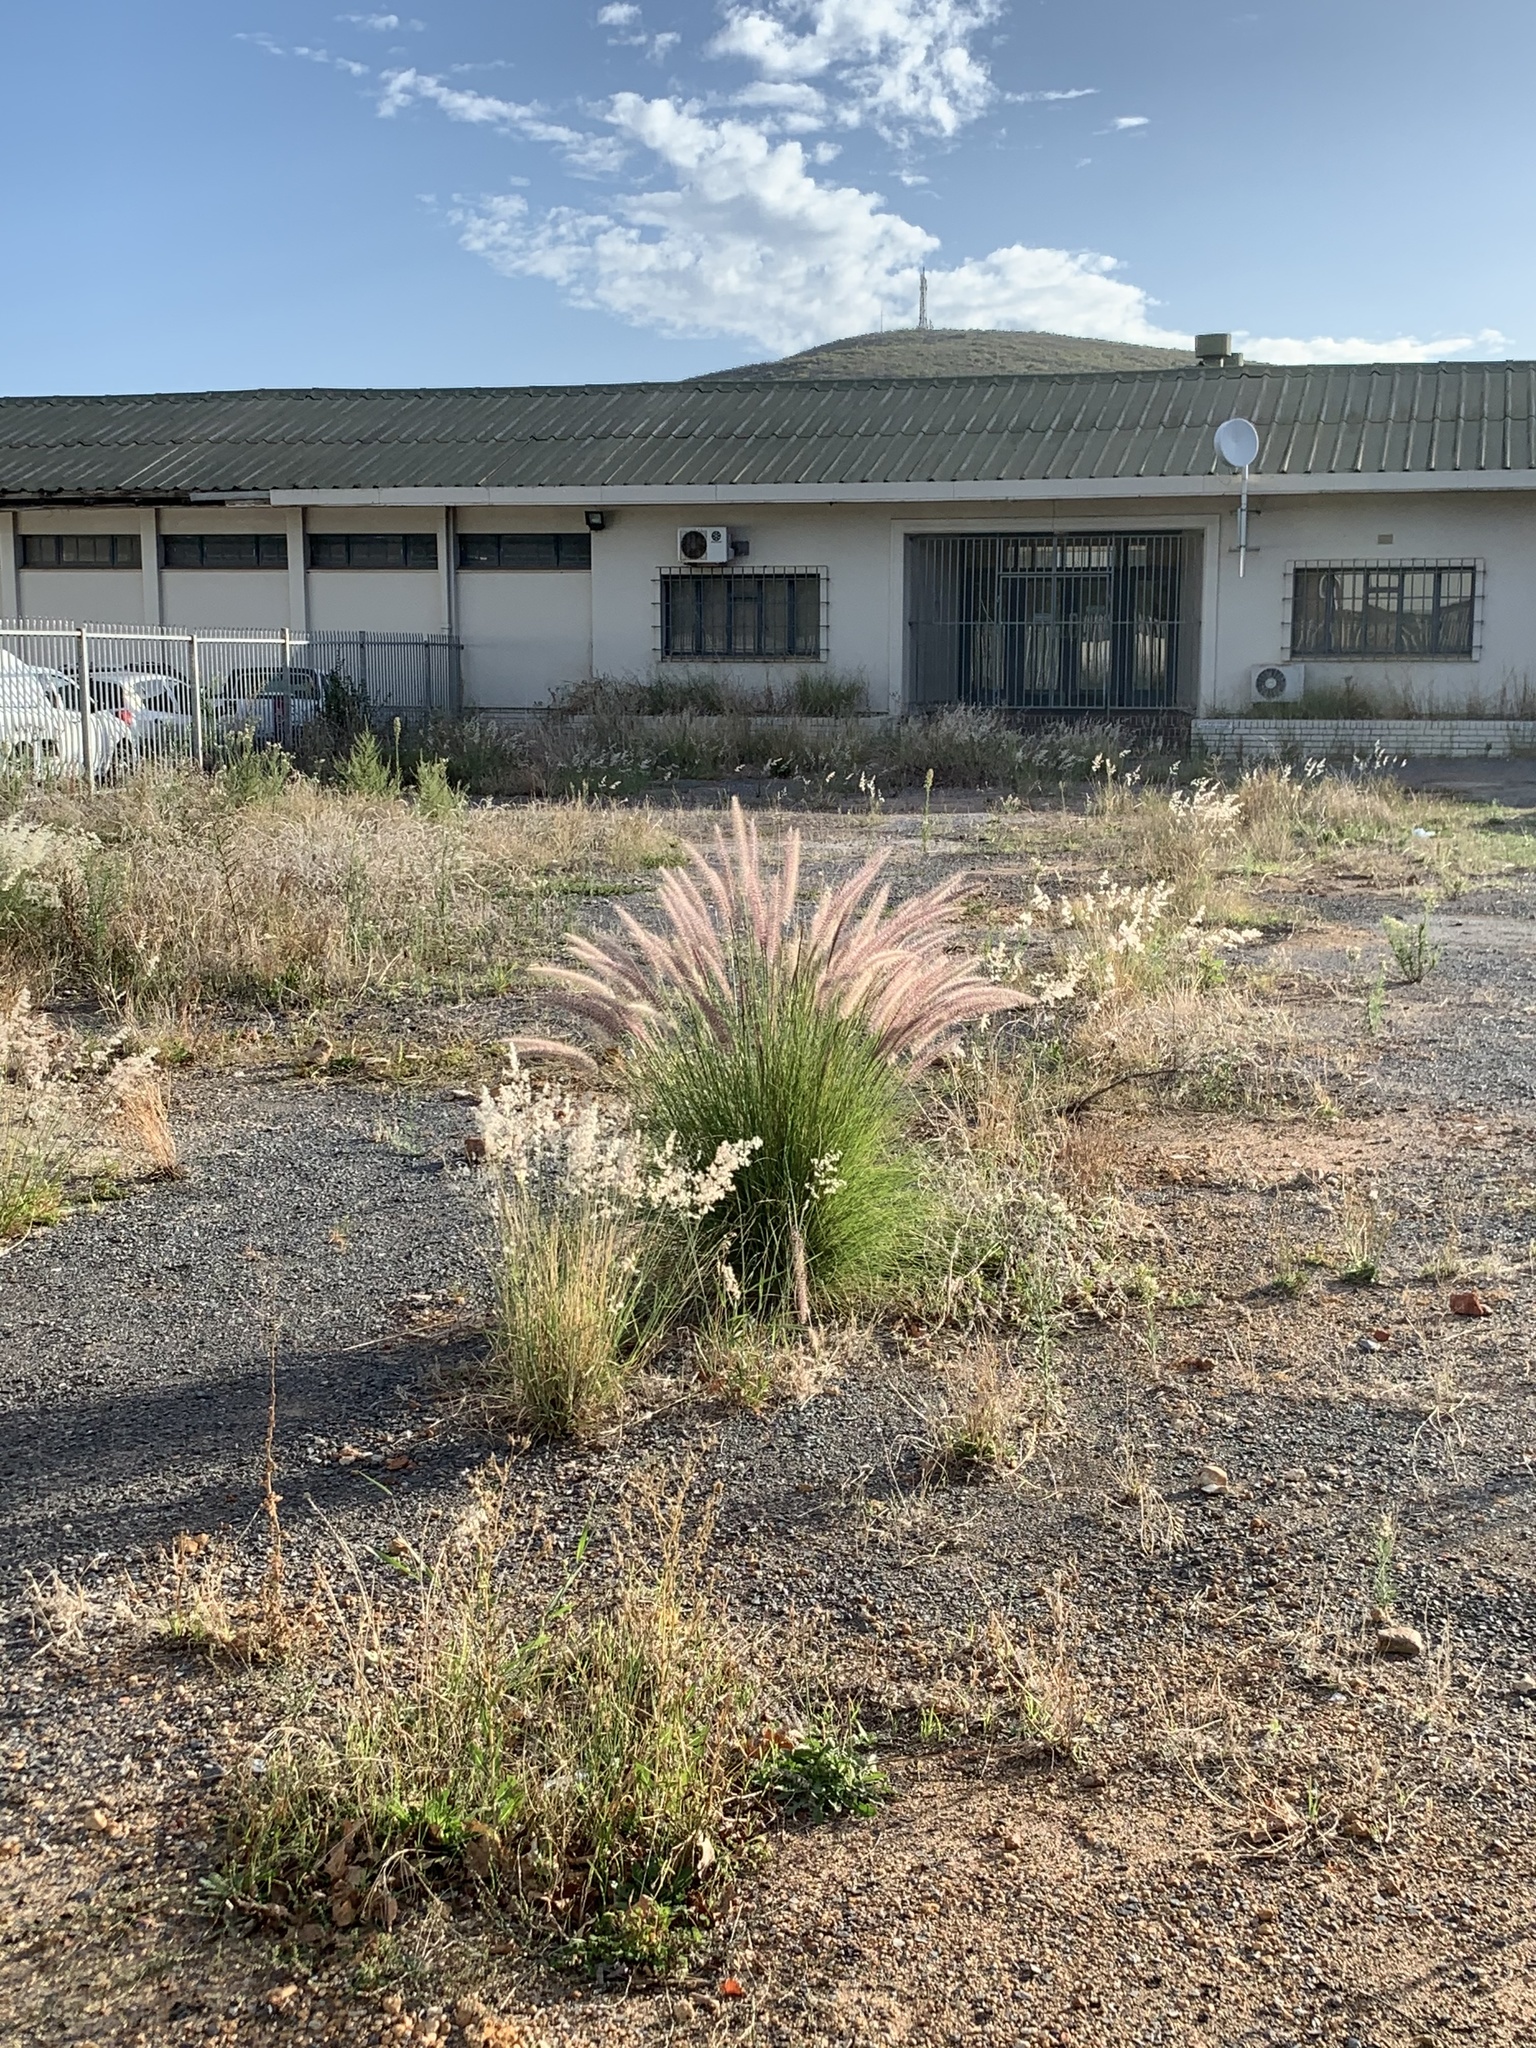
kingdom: Plantae
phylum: Tracheophyta
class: Liliopsida
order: Poales
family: Poaceae
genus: Cenchrus
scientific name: Cenchrus setaceus
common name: Crimson fountaingrass
